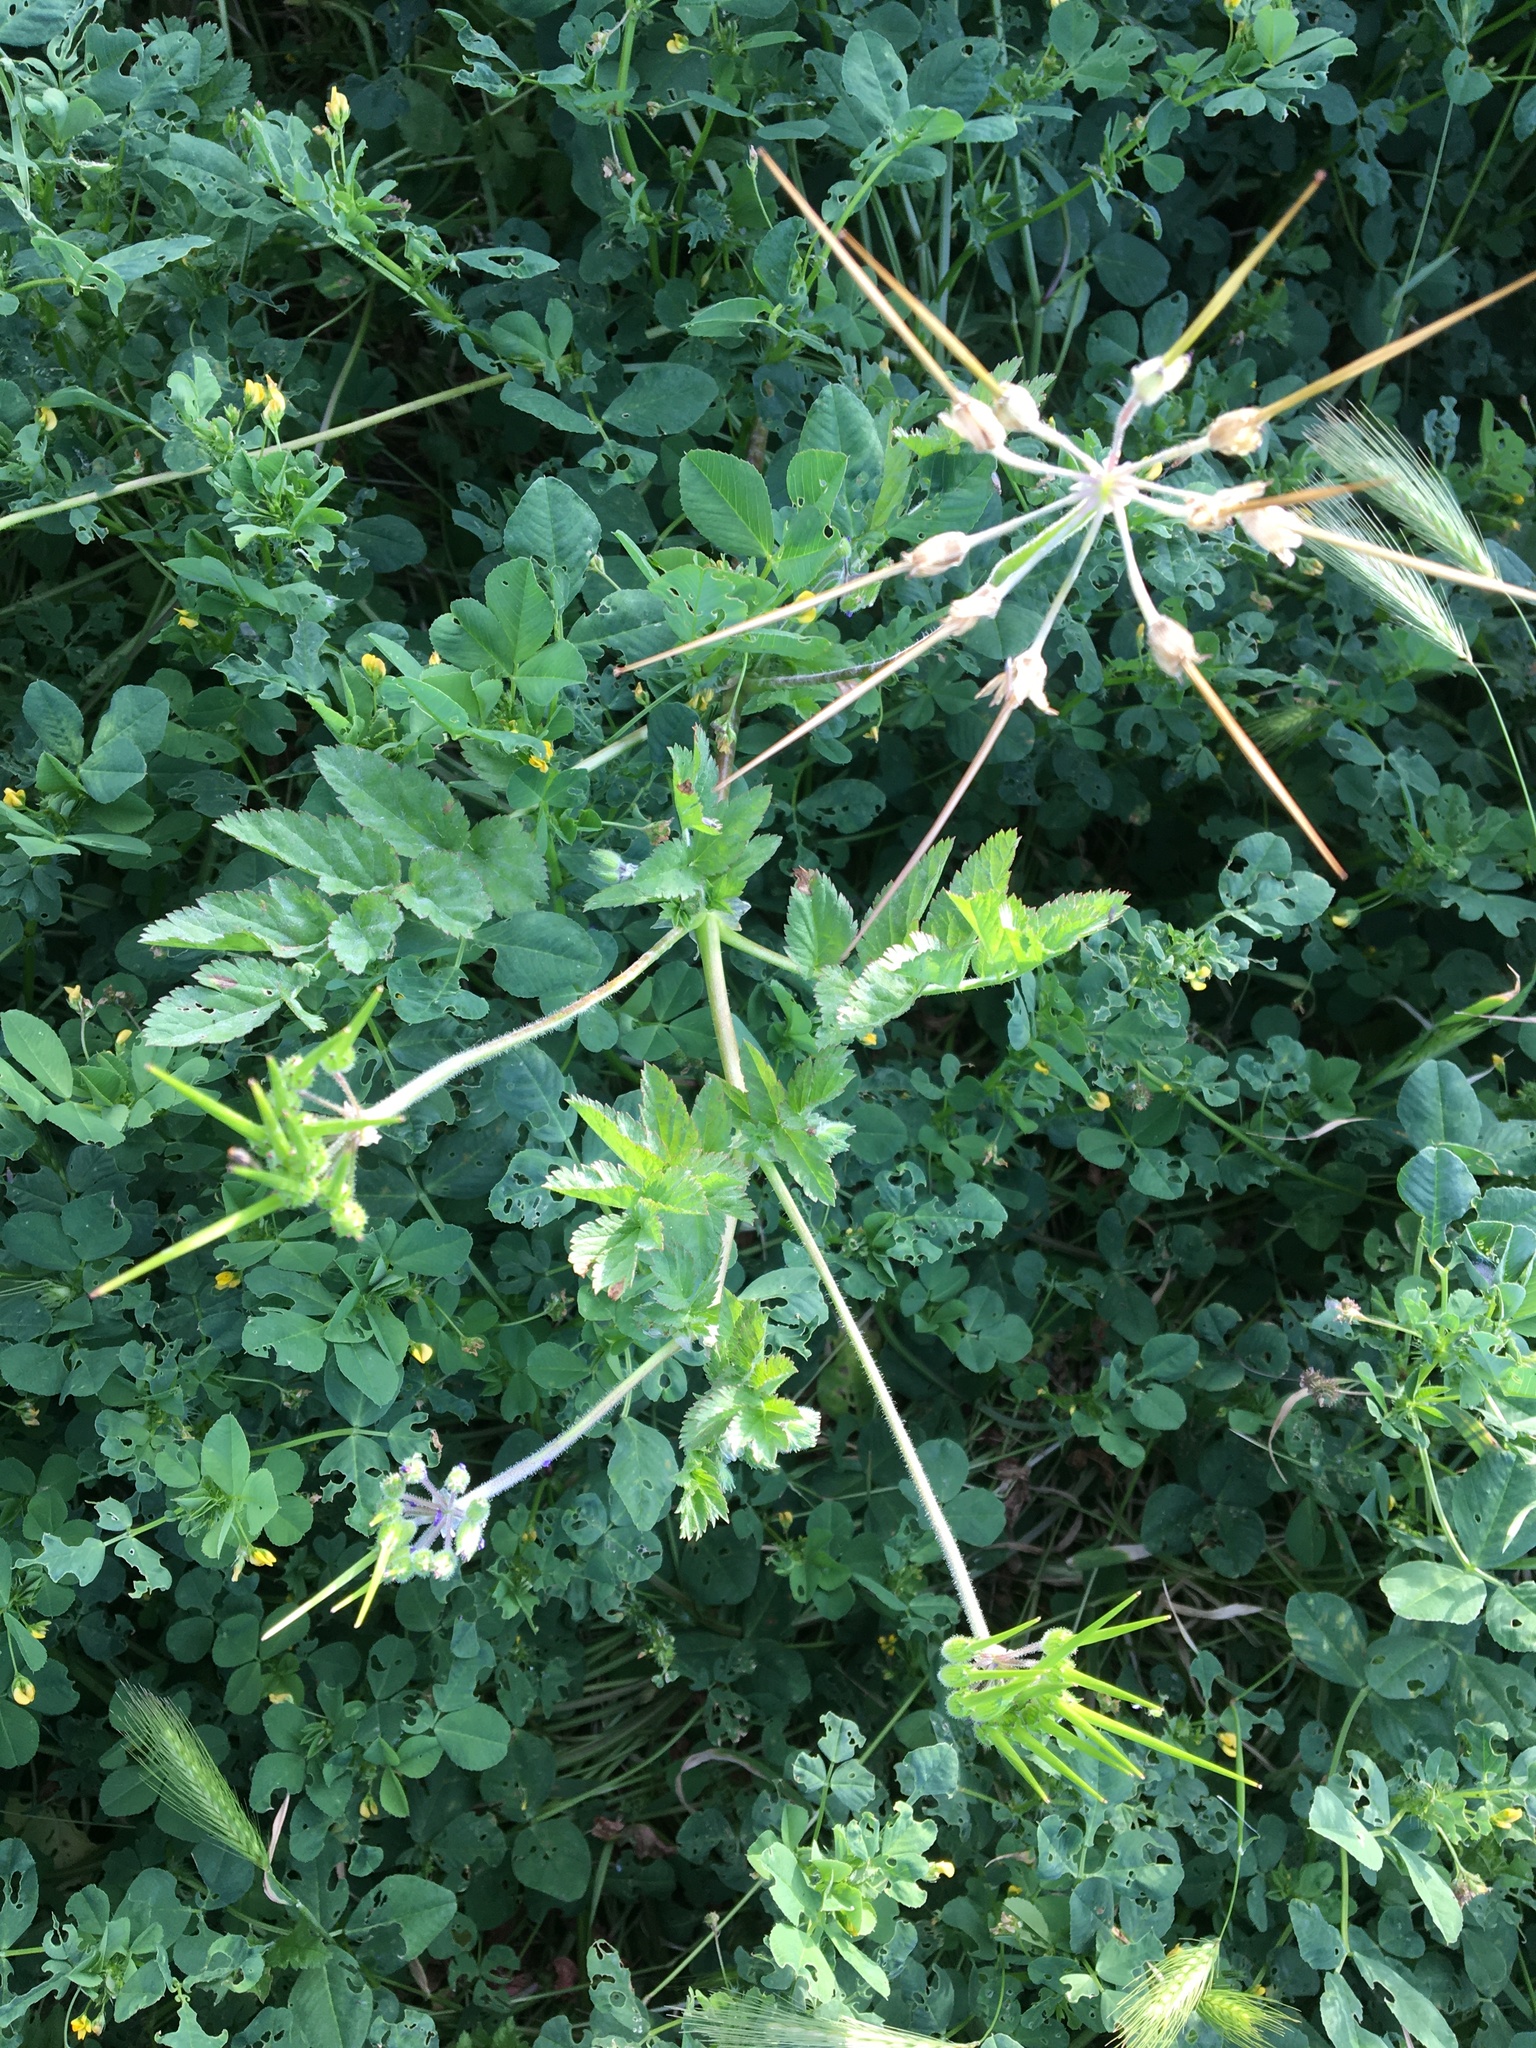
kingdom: Plantae
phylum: Tracheophyta
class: Magnoliopsida
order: Geraniales
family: Geraniaceae
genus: Erodium
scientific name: Erodium moschatum
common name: Musk stork's-bill
